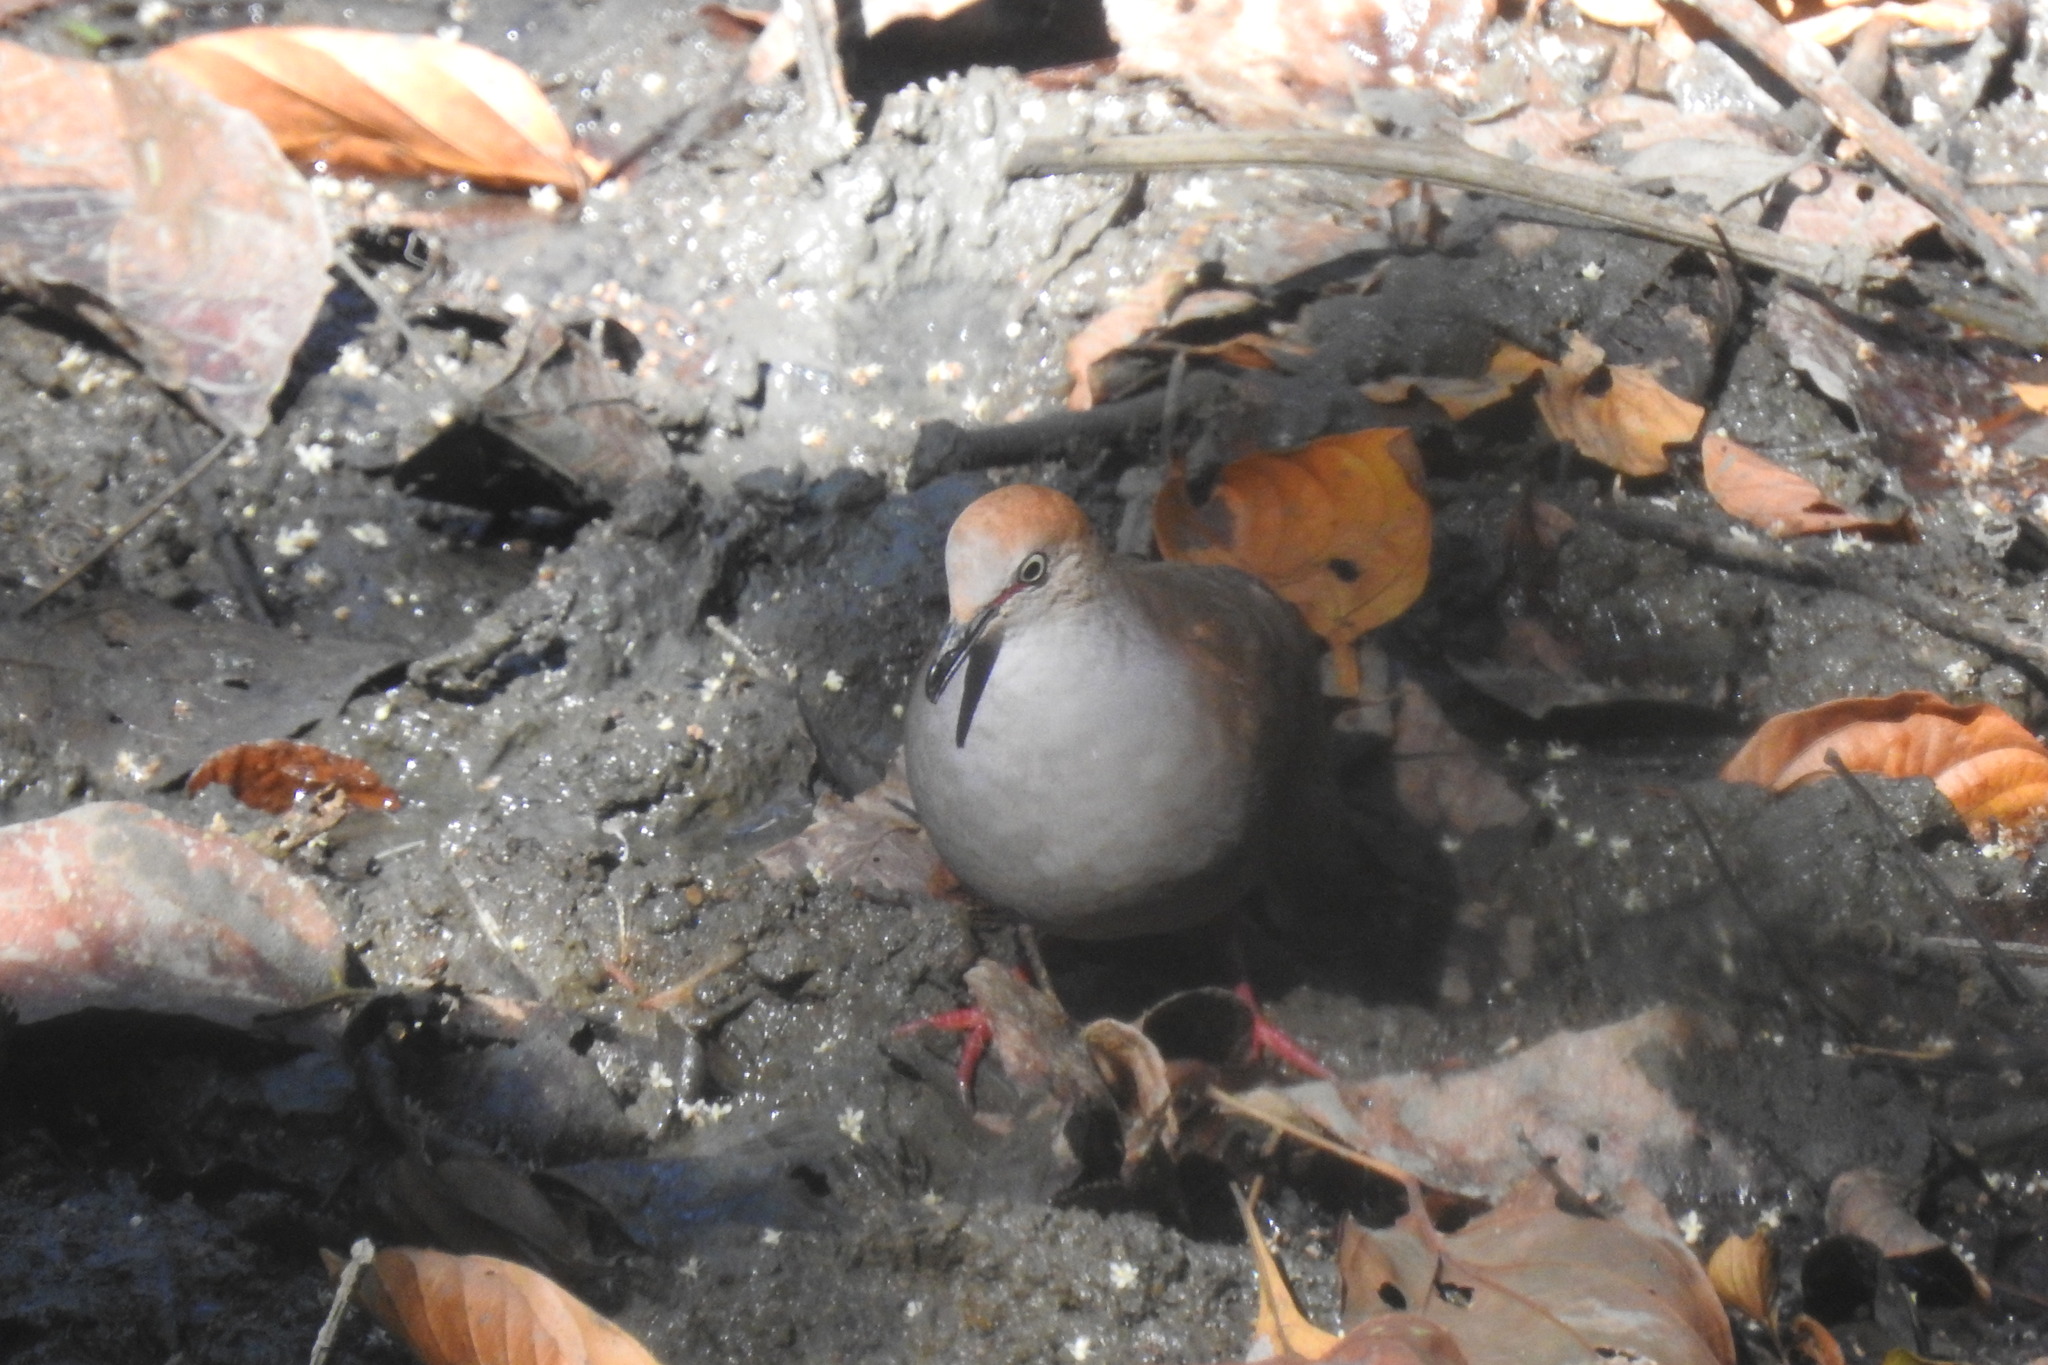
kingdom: Animalia
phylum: Chordata
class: Aves
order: Columbiformes
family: Columbidae
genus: Leptotila
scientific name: Leptotila cassinii
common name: Grey-chested dove
